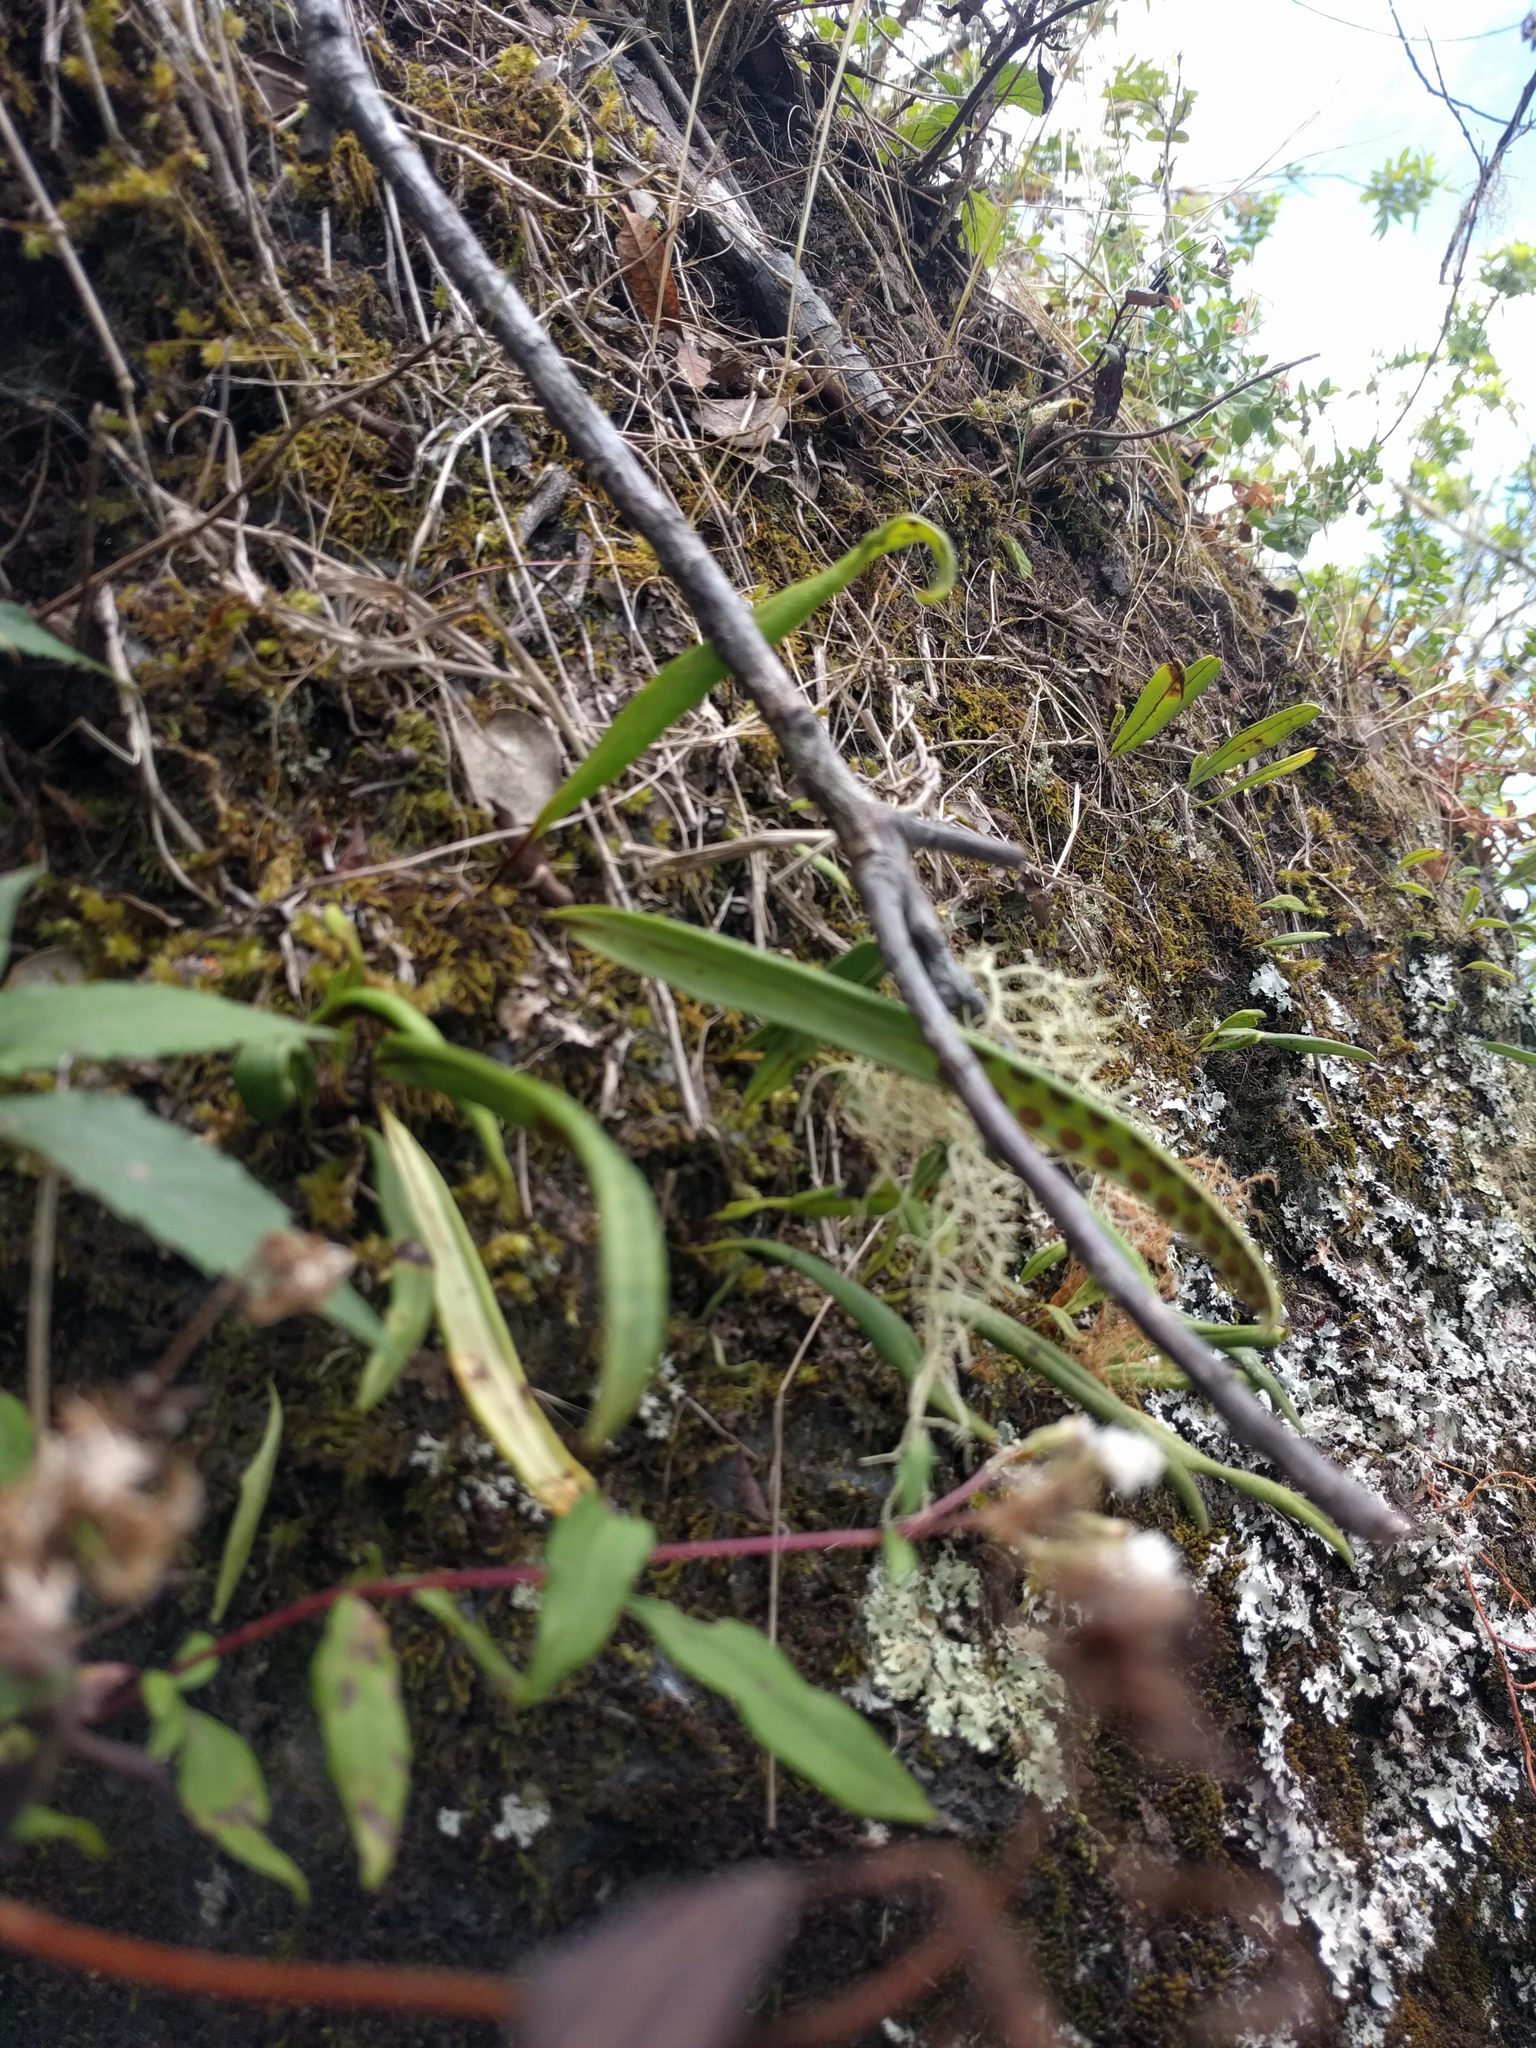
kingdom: Plantae
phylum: Tracheophyta
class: Polypodiopsida
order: Polypodiales
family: Polypodiaceae
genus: Lepisorus
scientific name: Lepisorus thunbergianus
